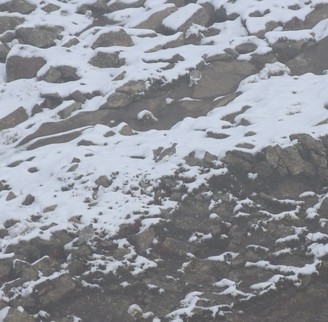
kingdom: Animalia
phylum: Chordata
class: Aves
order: Galliformes
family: Phasianidae
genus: Lagopus
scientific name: Lagopus muta
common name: Rock ptarmigan
